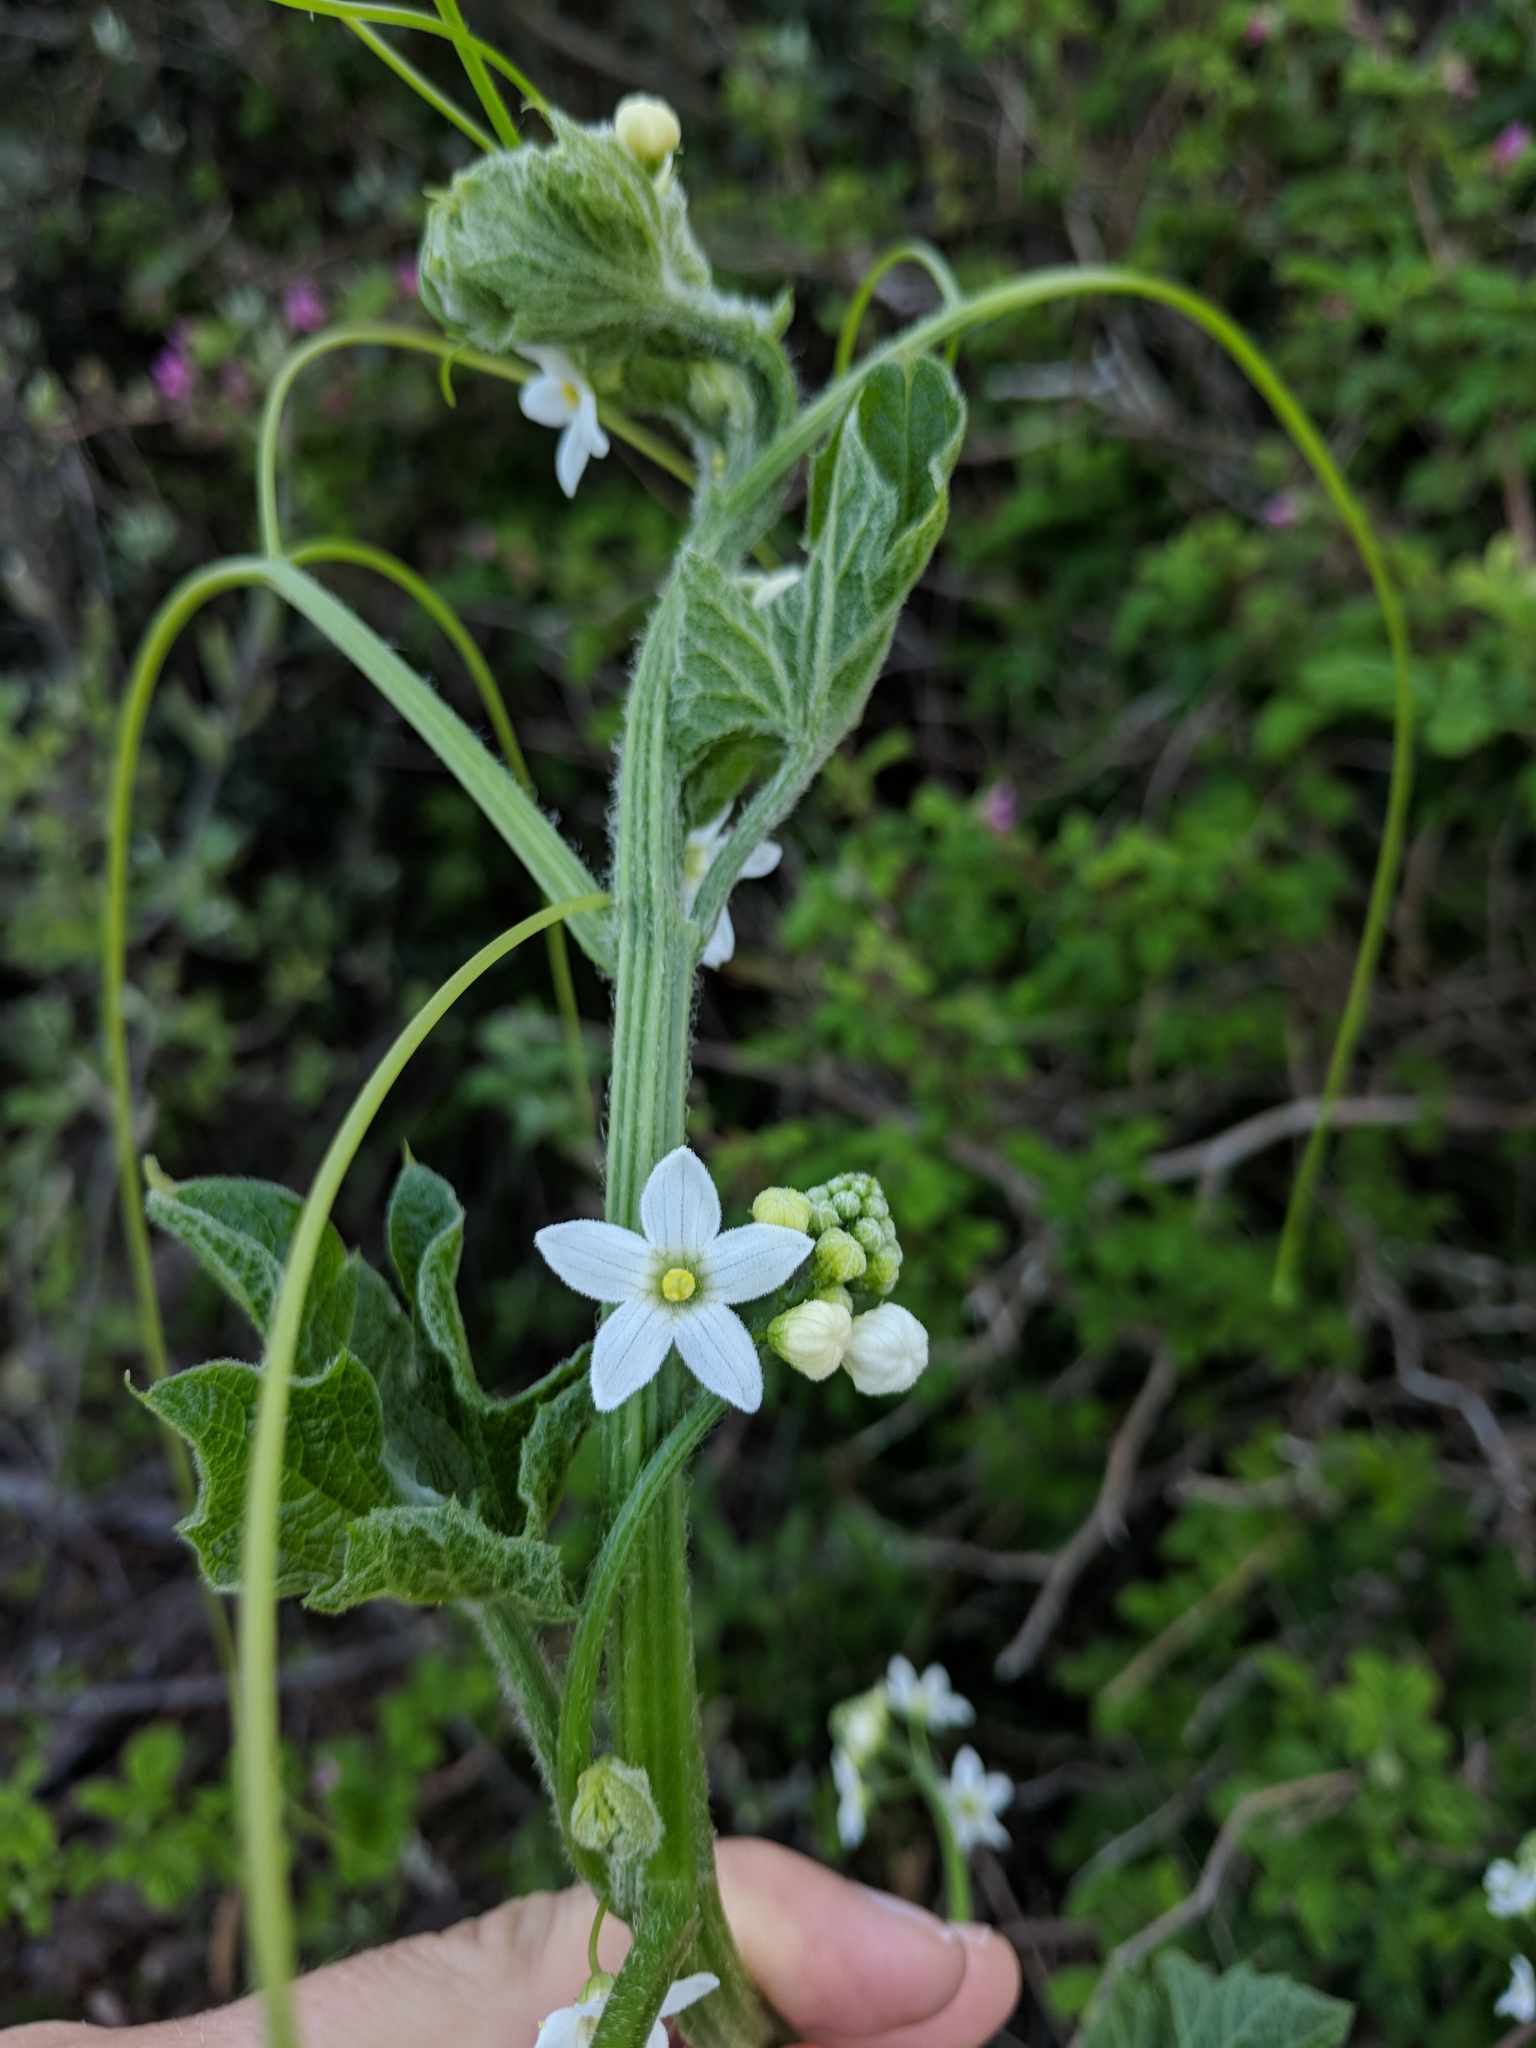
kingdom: Plantae
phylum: Tracheophyta
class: Magnoliopsida
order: Cucurbitales
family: Cucurbitaceae
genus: Marah
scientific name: Marah oregana
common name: Coastal manroot
